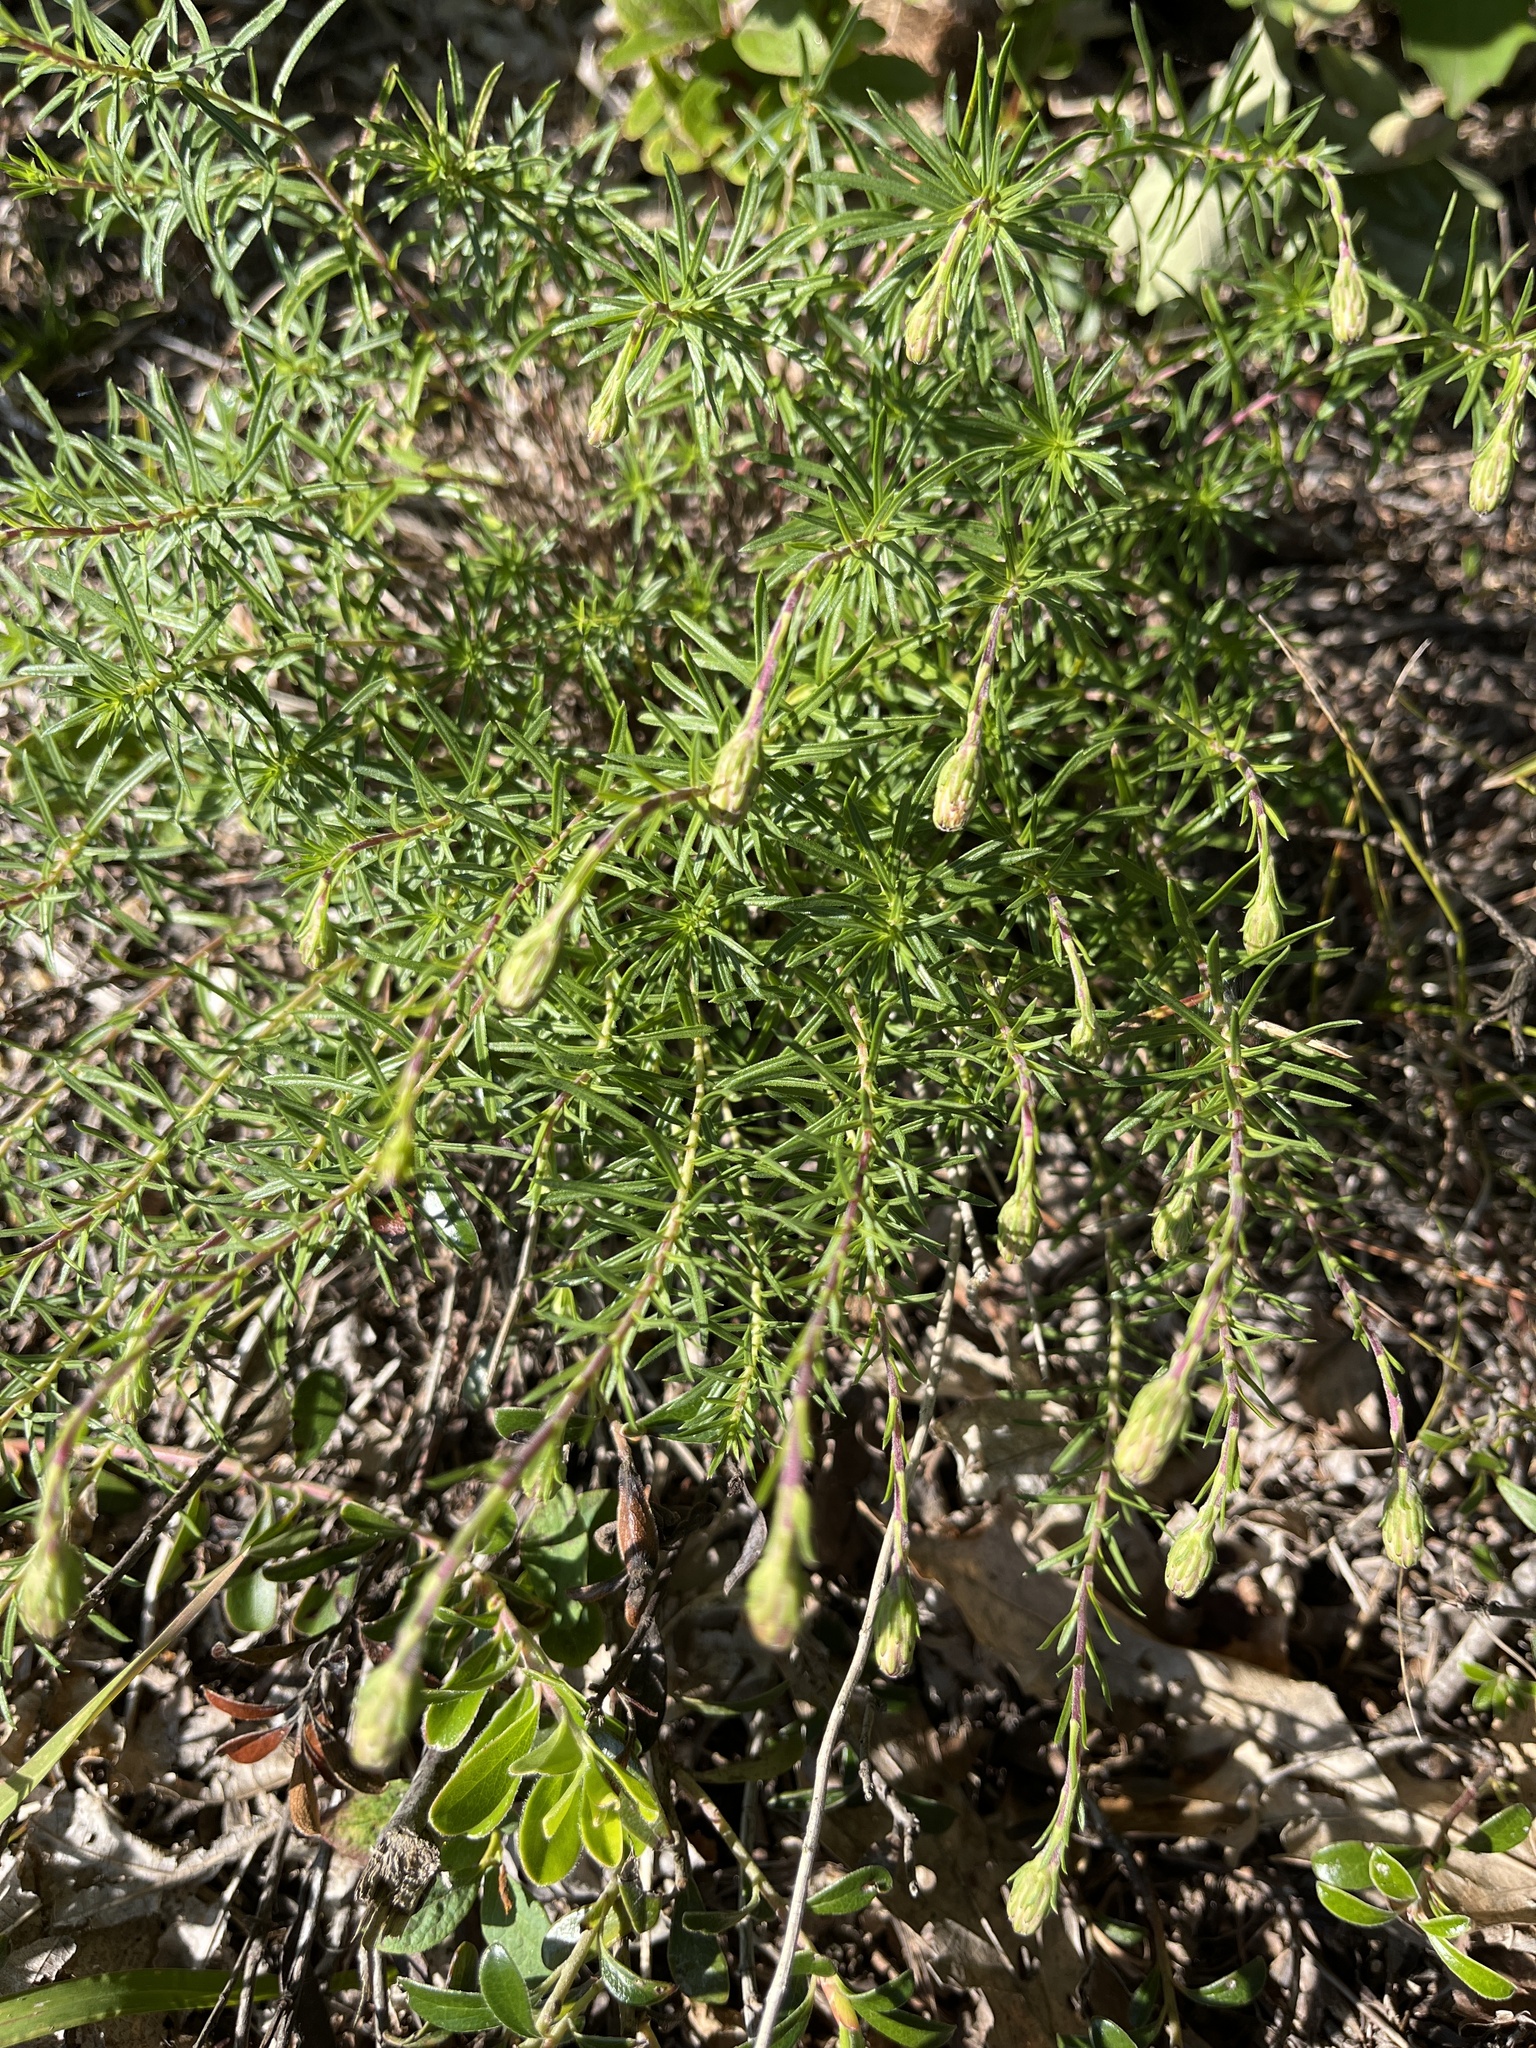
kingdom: Plantae
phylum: Tracheophyta
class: Magnoliopsida
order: Asterales
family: Asteraceae
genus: Ionactis
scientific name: Ionactis linariifolia
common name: Flax-leaf aster
